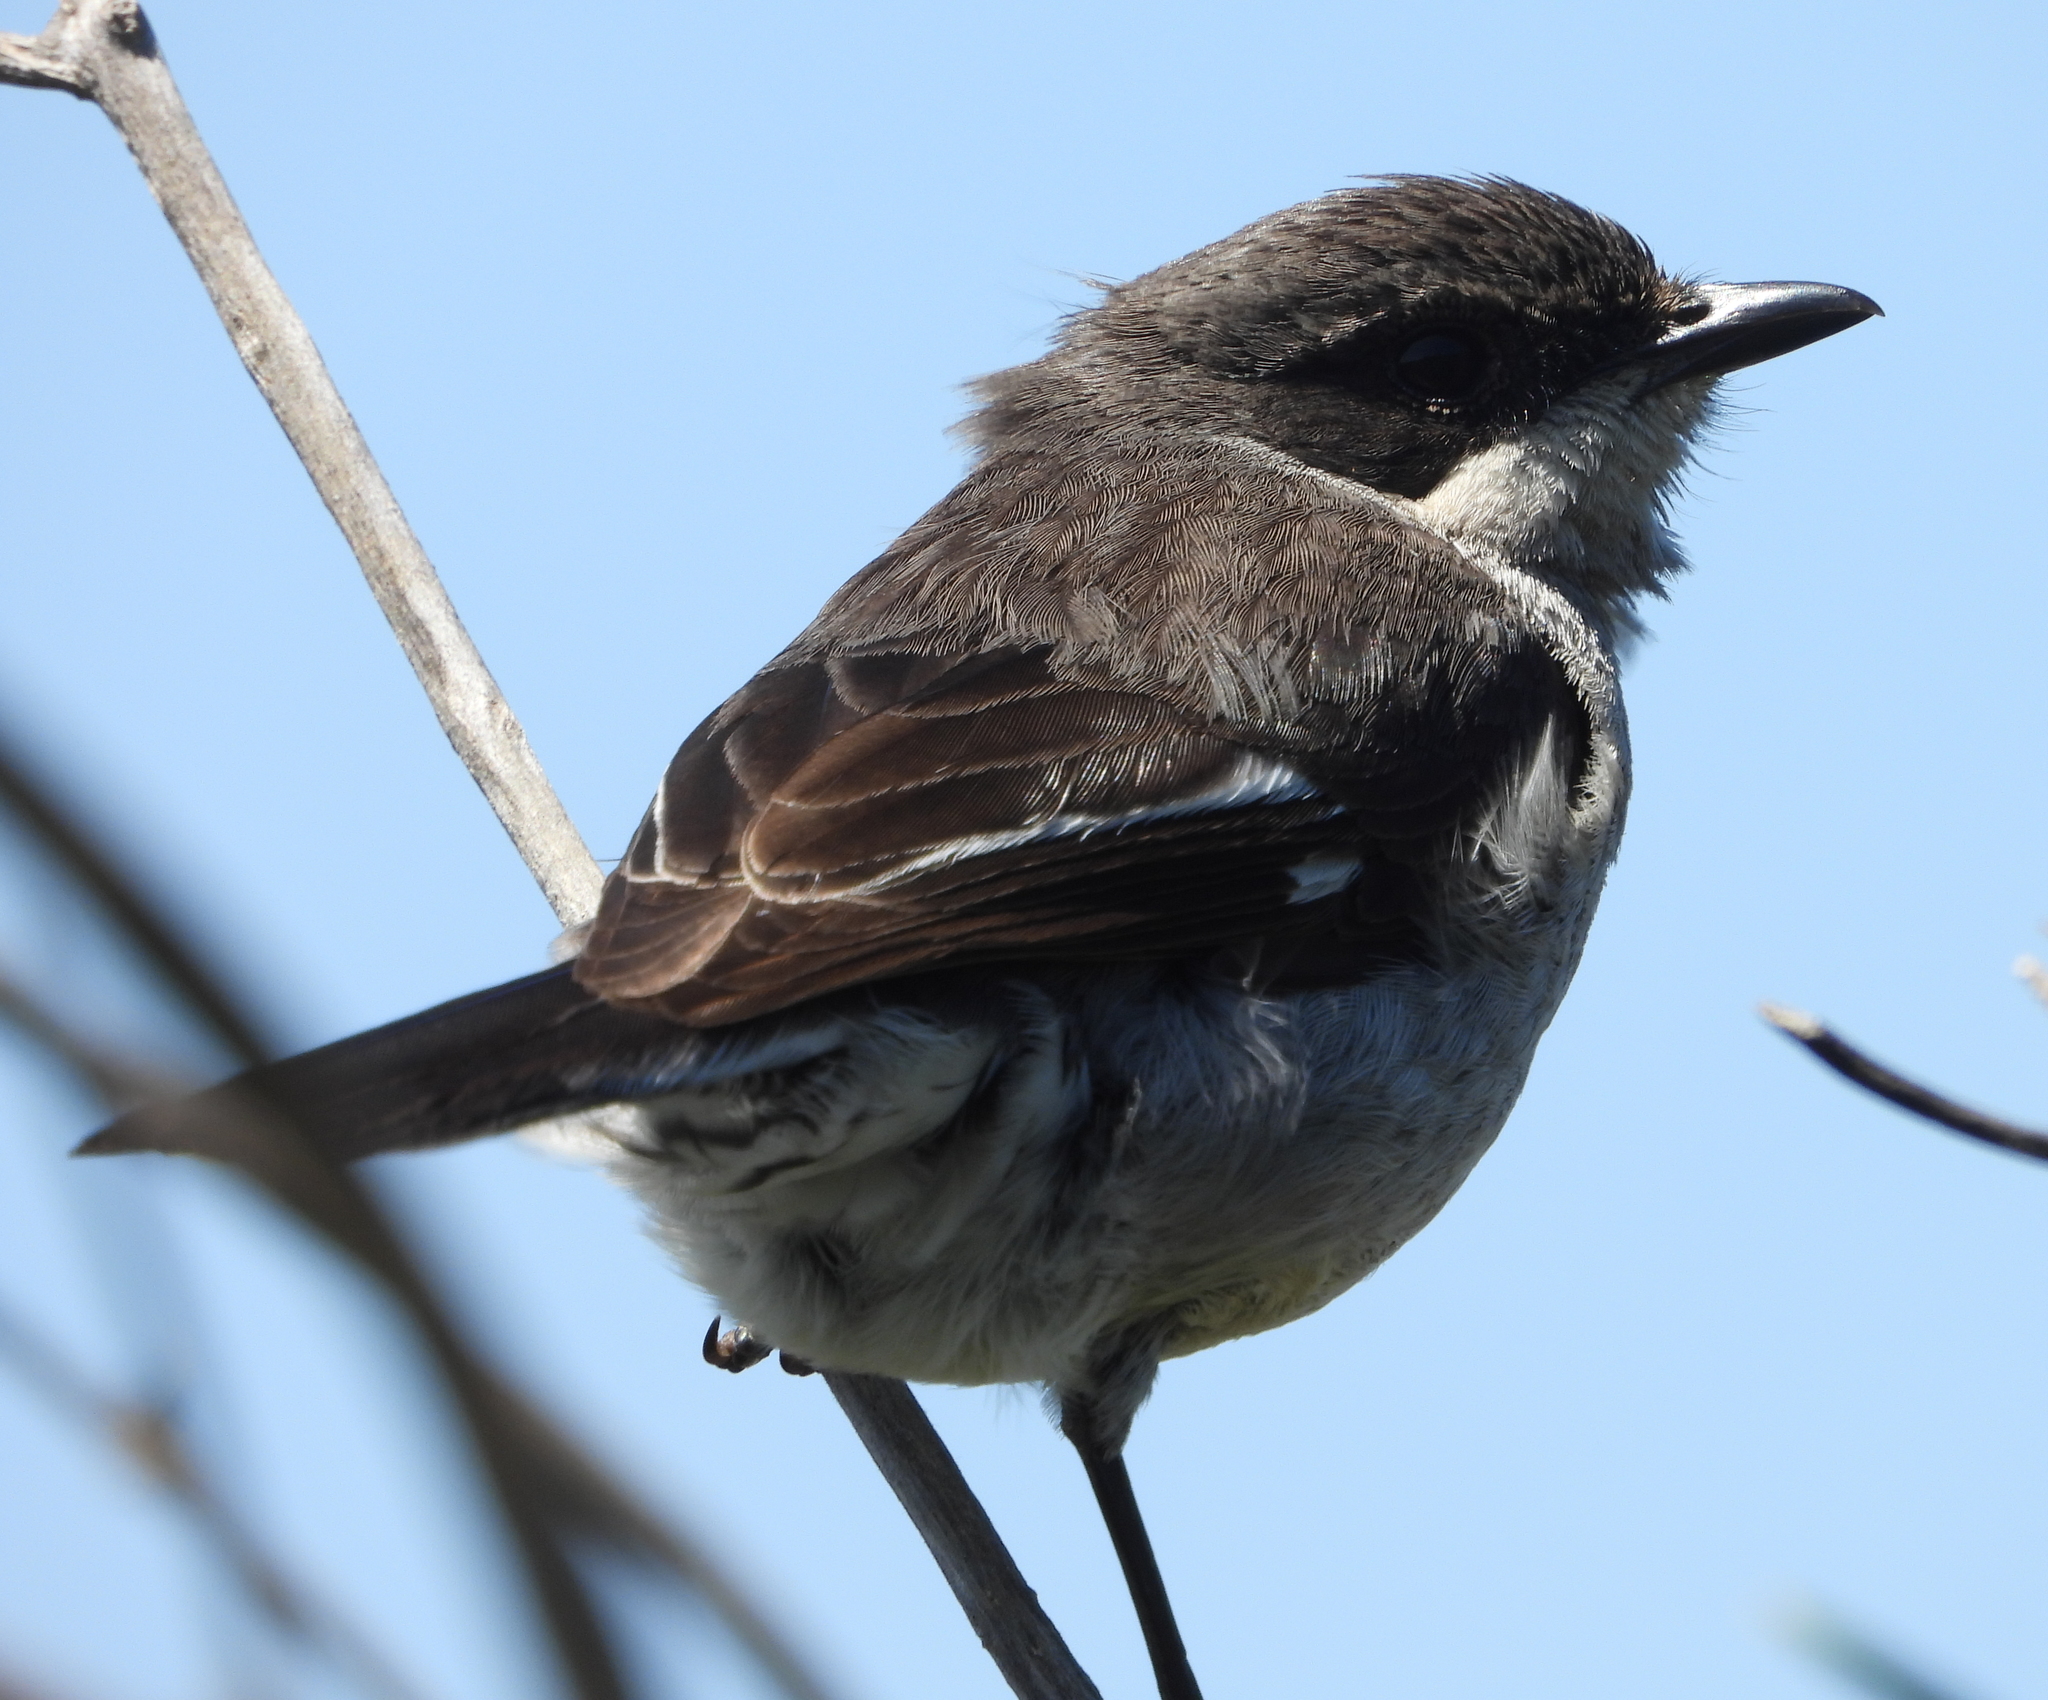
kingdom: Animalia
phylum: Chordata
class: Aves
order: Passeriformes
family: Muscicapidae
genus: Sigelus
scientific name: Sigelus silens
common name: Fiscal flycatcher
